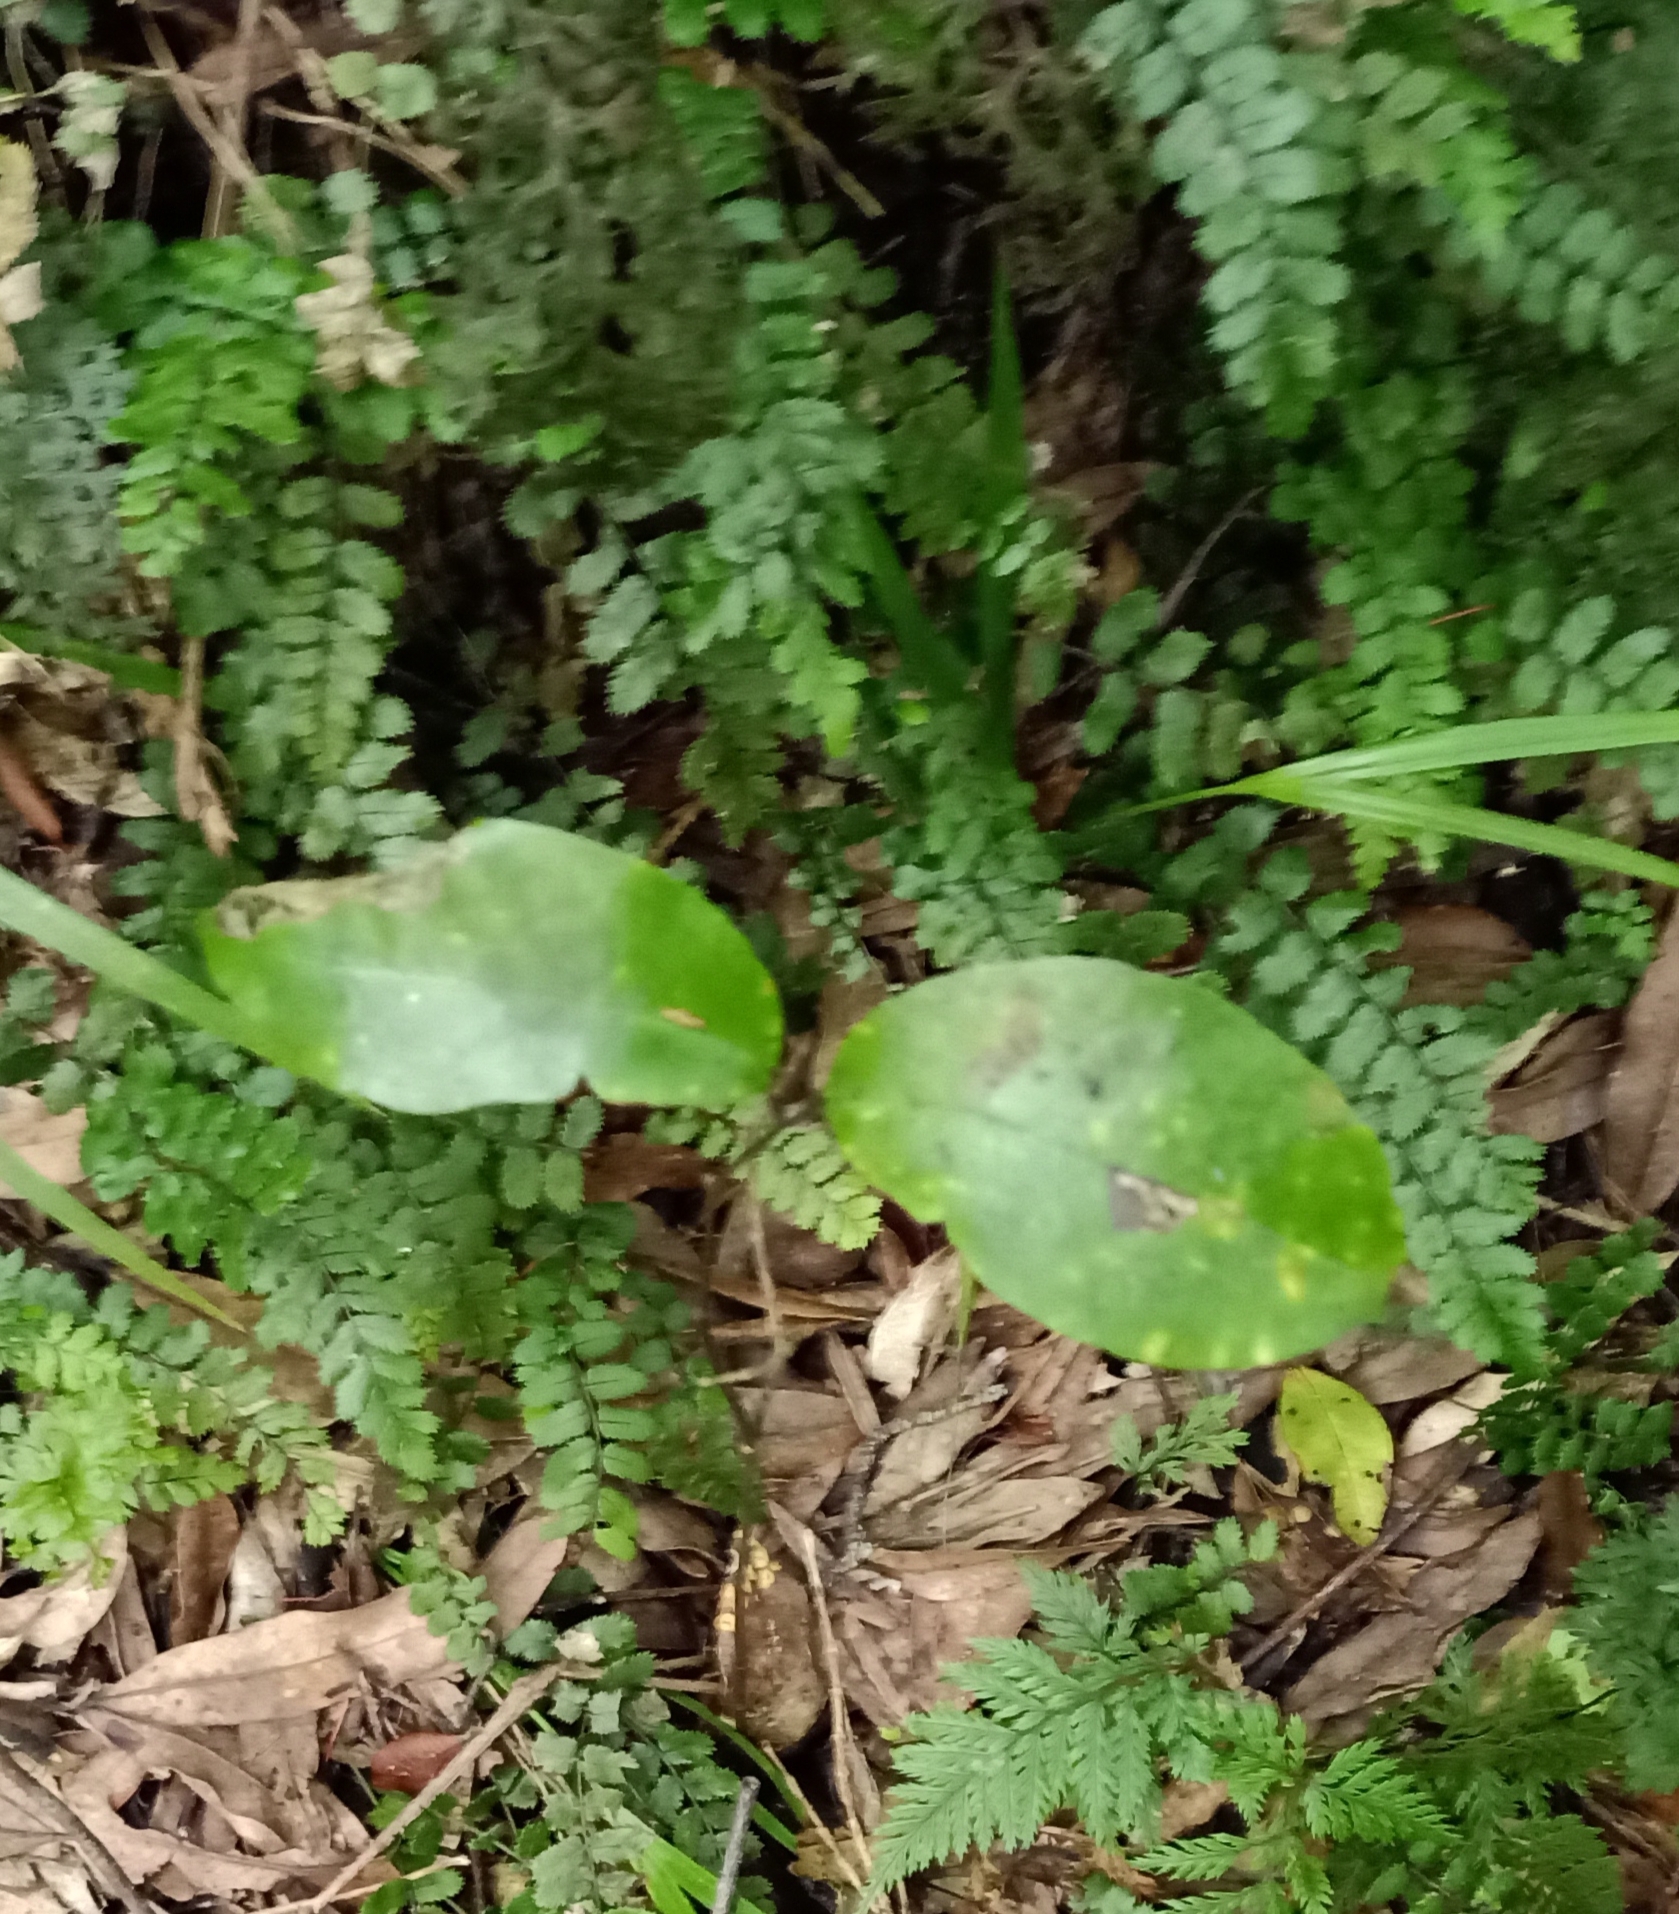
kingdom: Plantae
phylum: Tracheophyta
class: Liliopsida
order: Liliales
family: Ripogonaceae
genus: Ripogonum
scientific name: Ripogonum scandens
